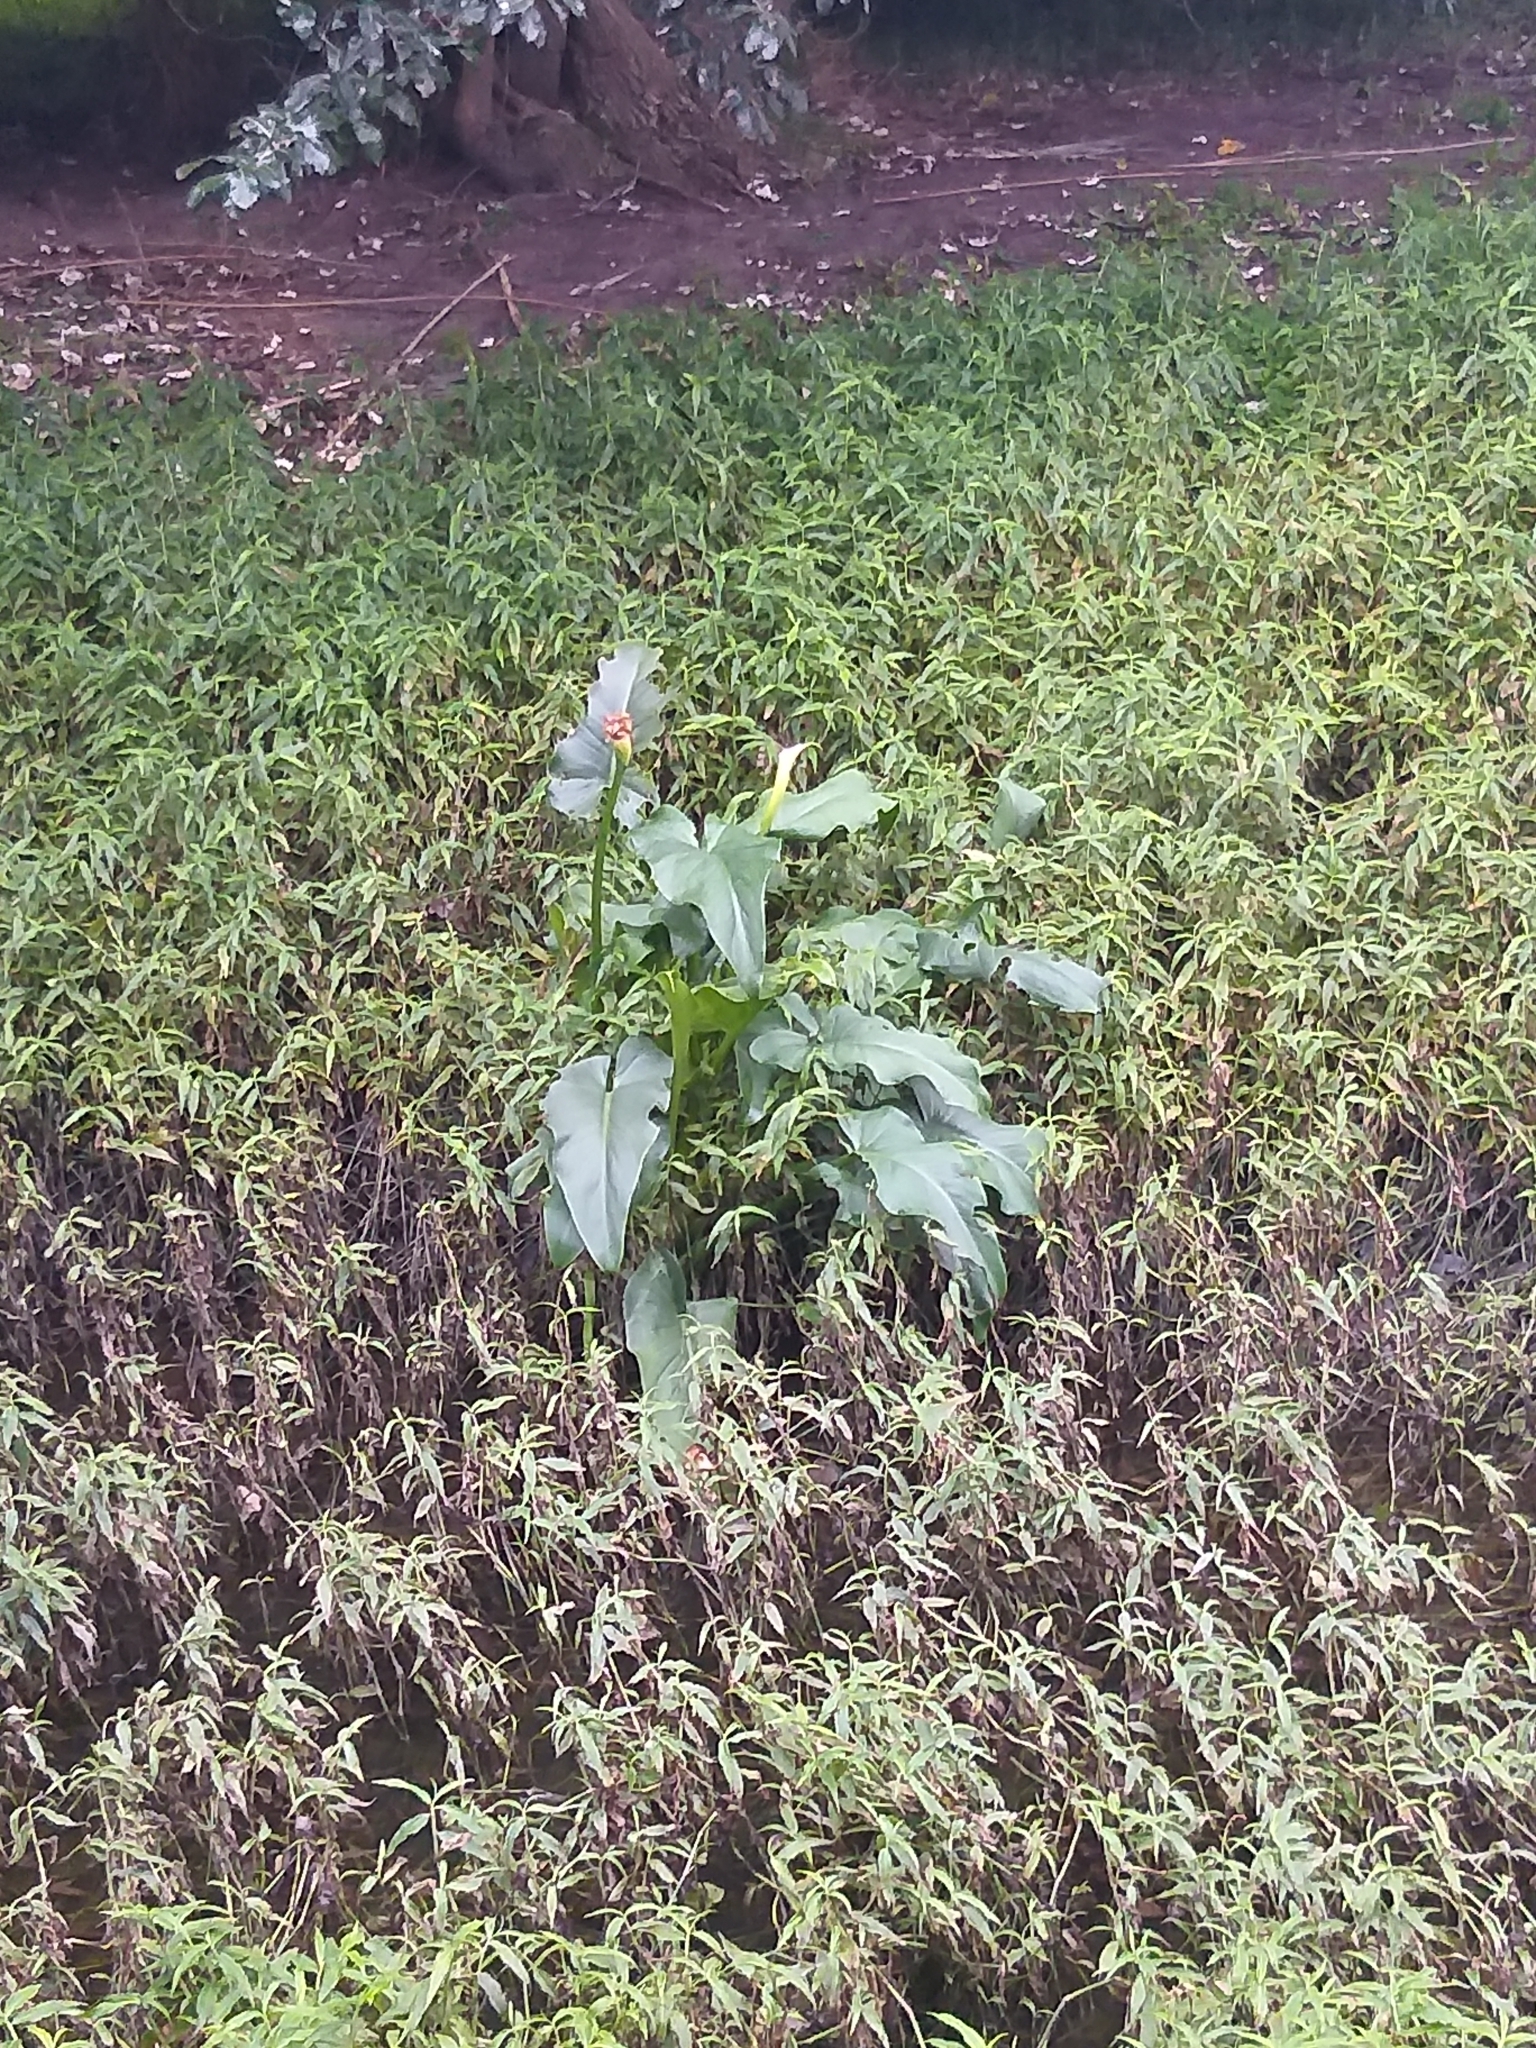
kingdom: Plantae
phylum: Tracheophyta
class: Liliopsida
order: Alismatales
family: Araceae
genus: Zantedeschia
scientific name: Zantedeschia aethiopica
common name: Altar-lily
